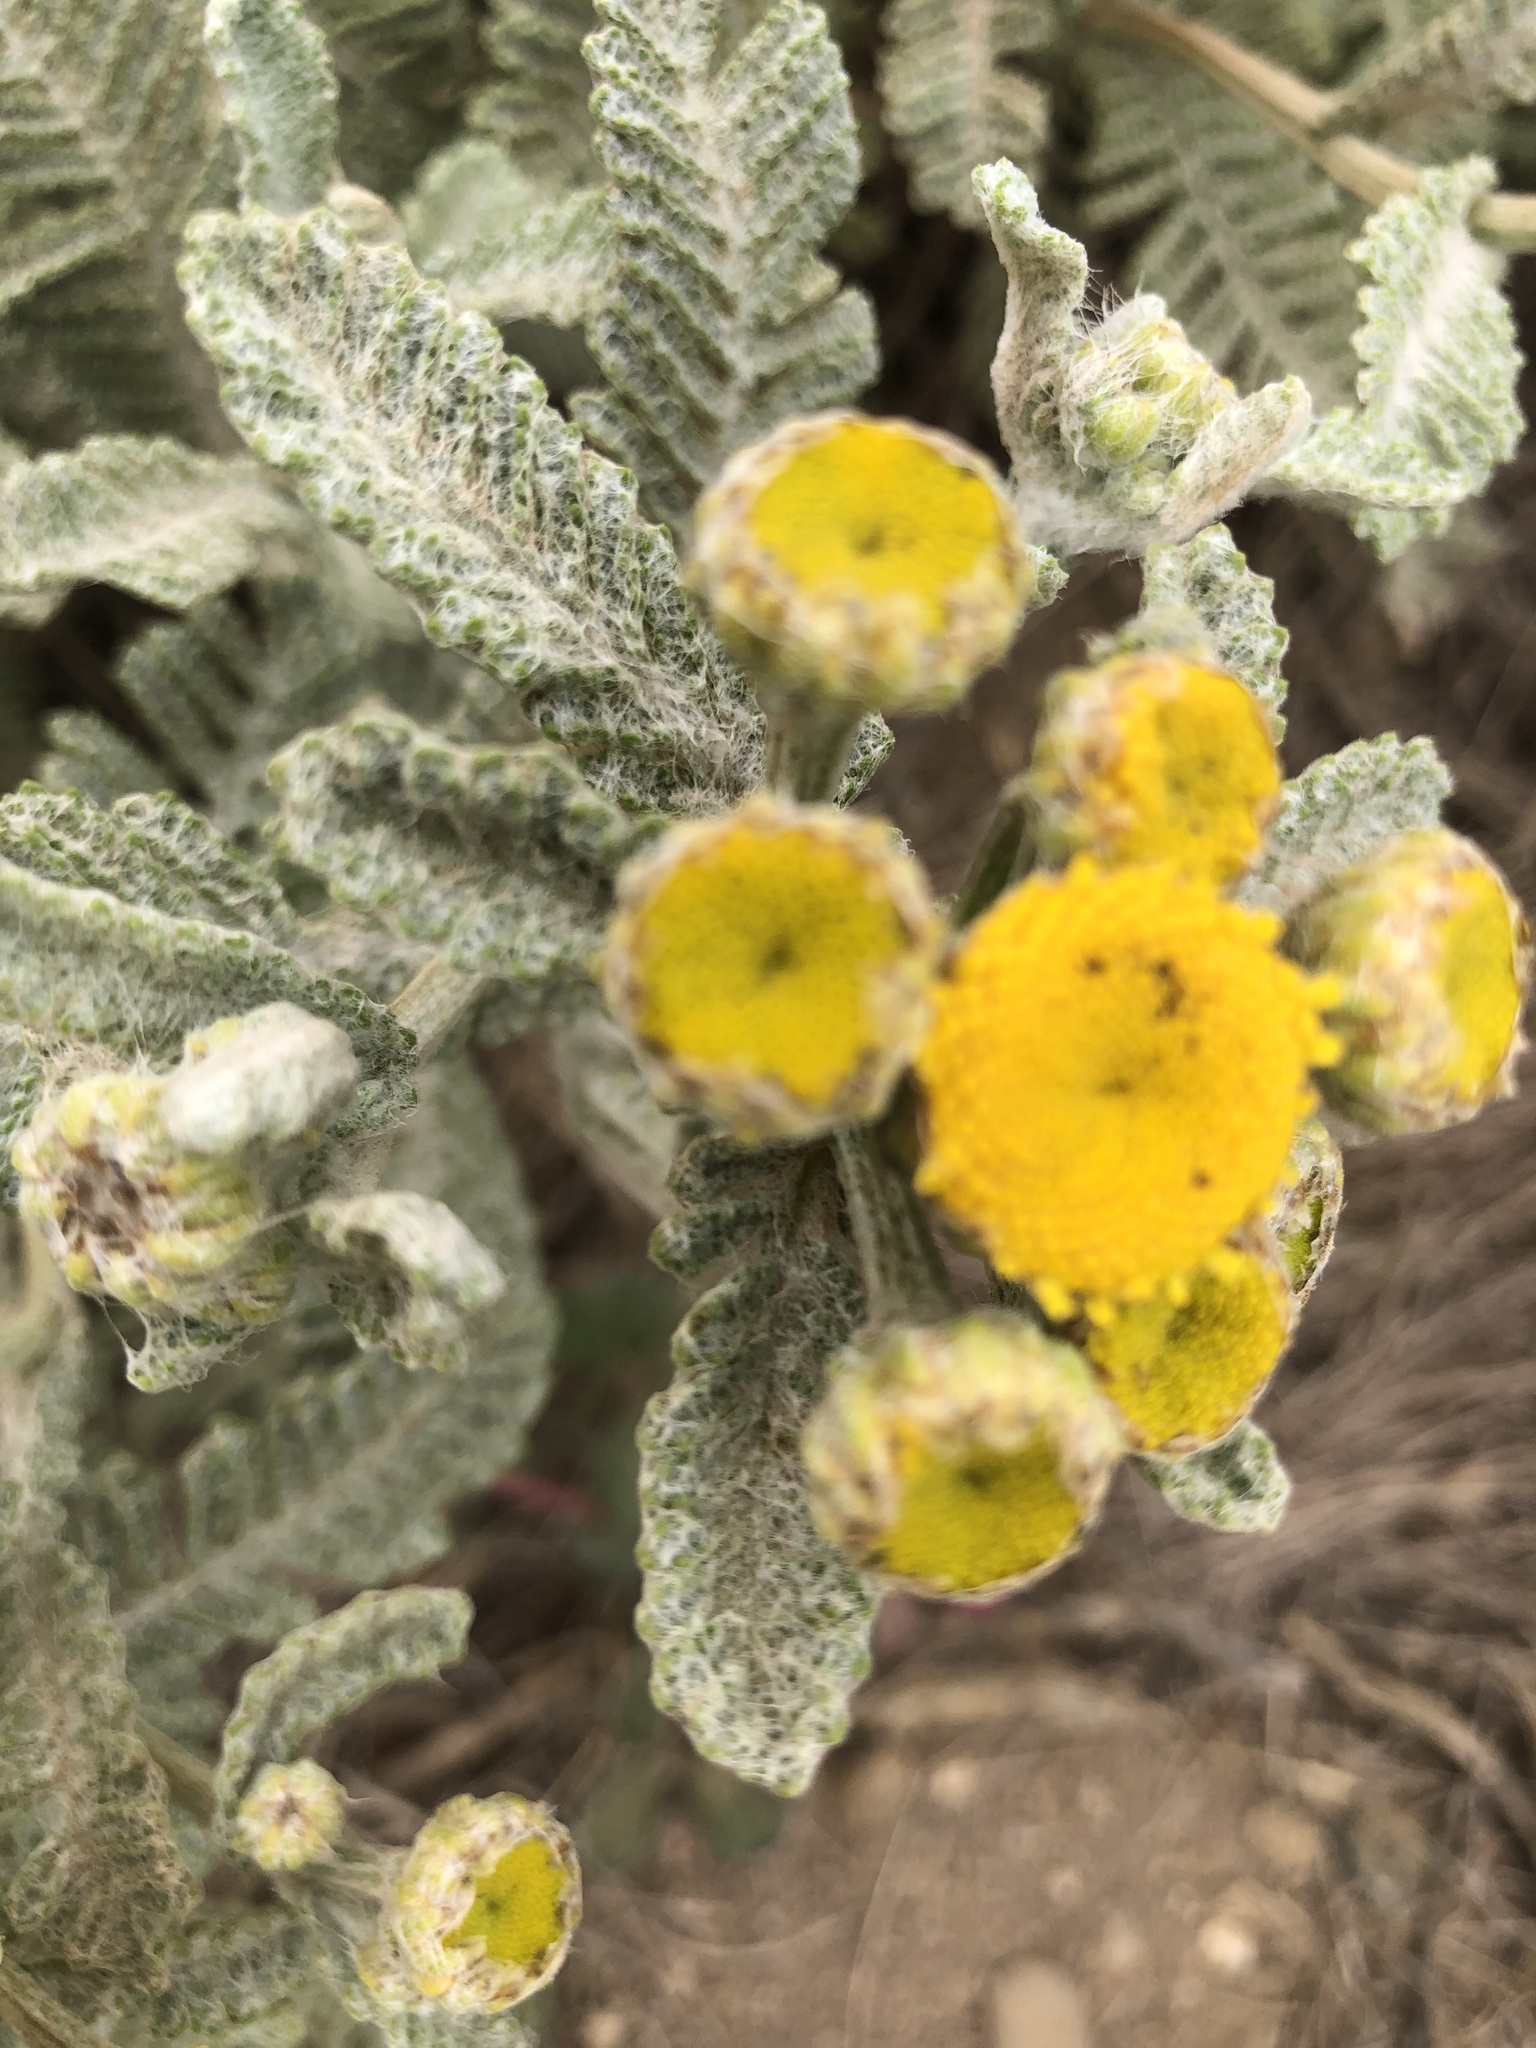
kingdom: Plantae
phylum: Tracheophyta
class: Magnoliopsida
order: Asterales
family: Asteraceae
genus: Tanacetum
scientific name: Tanacetum bipinnatum
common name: Dwarf tansy
